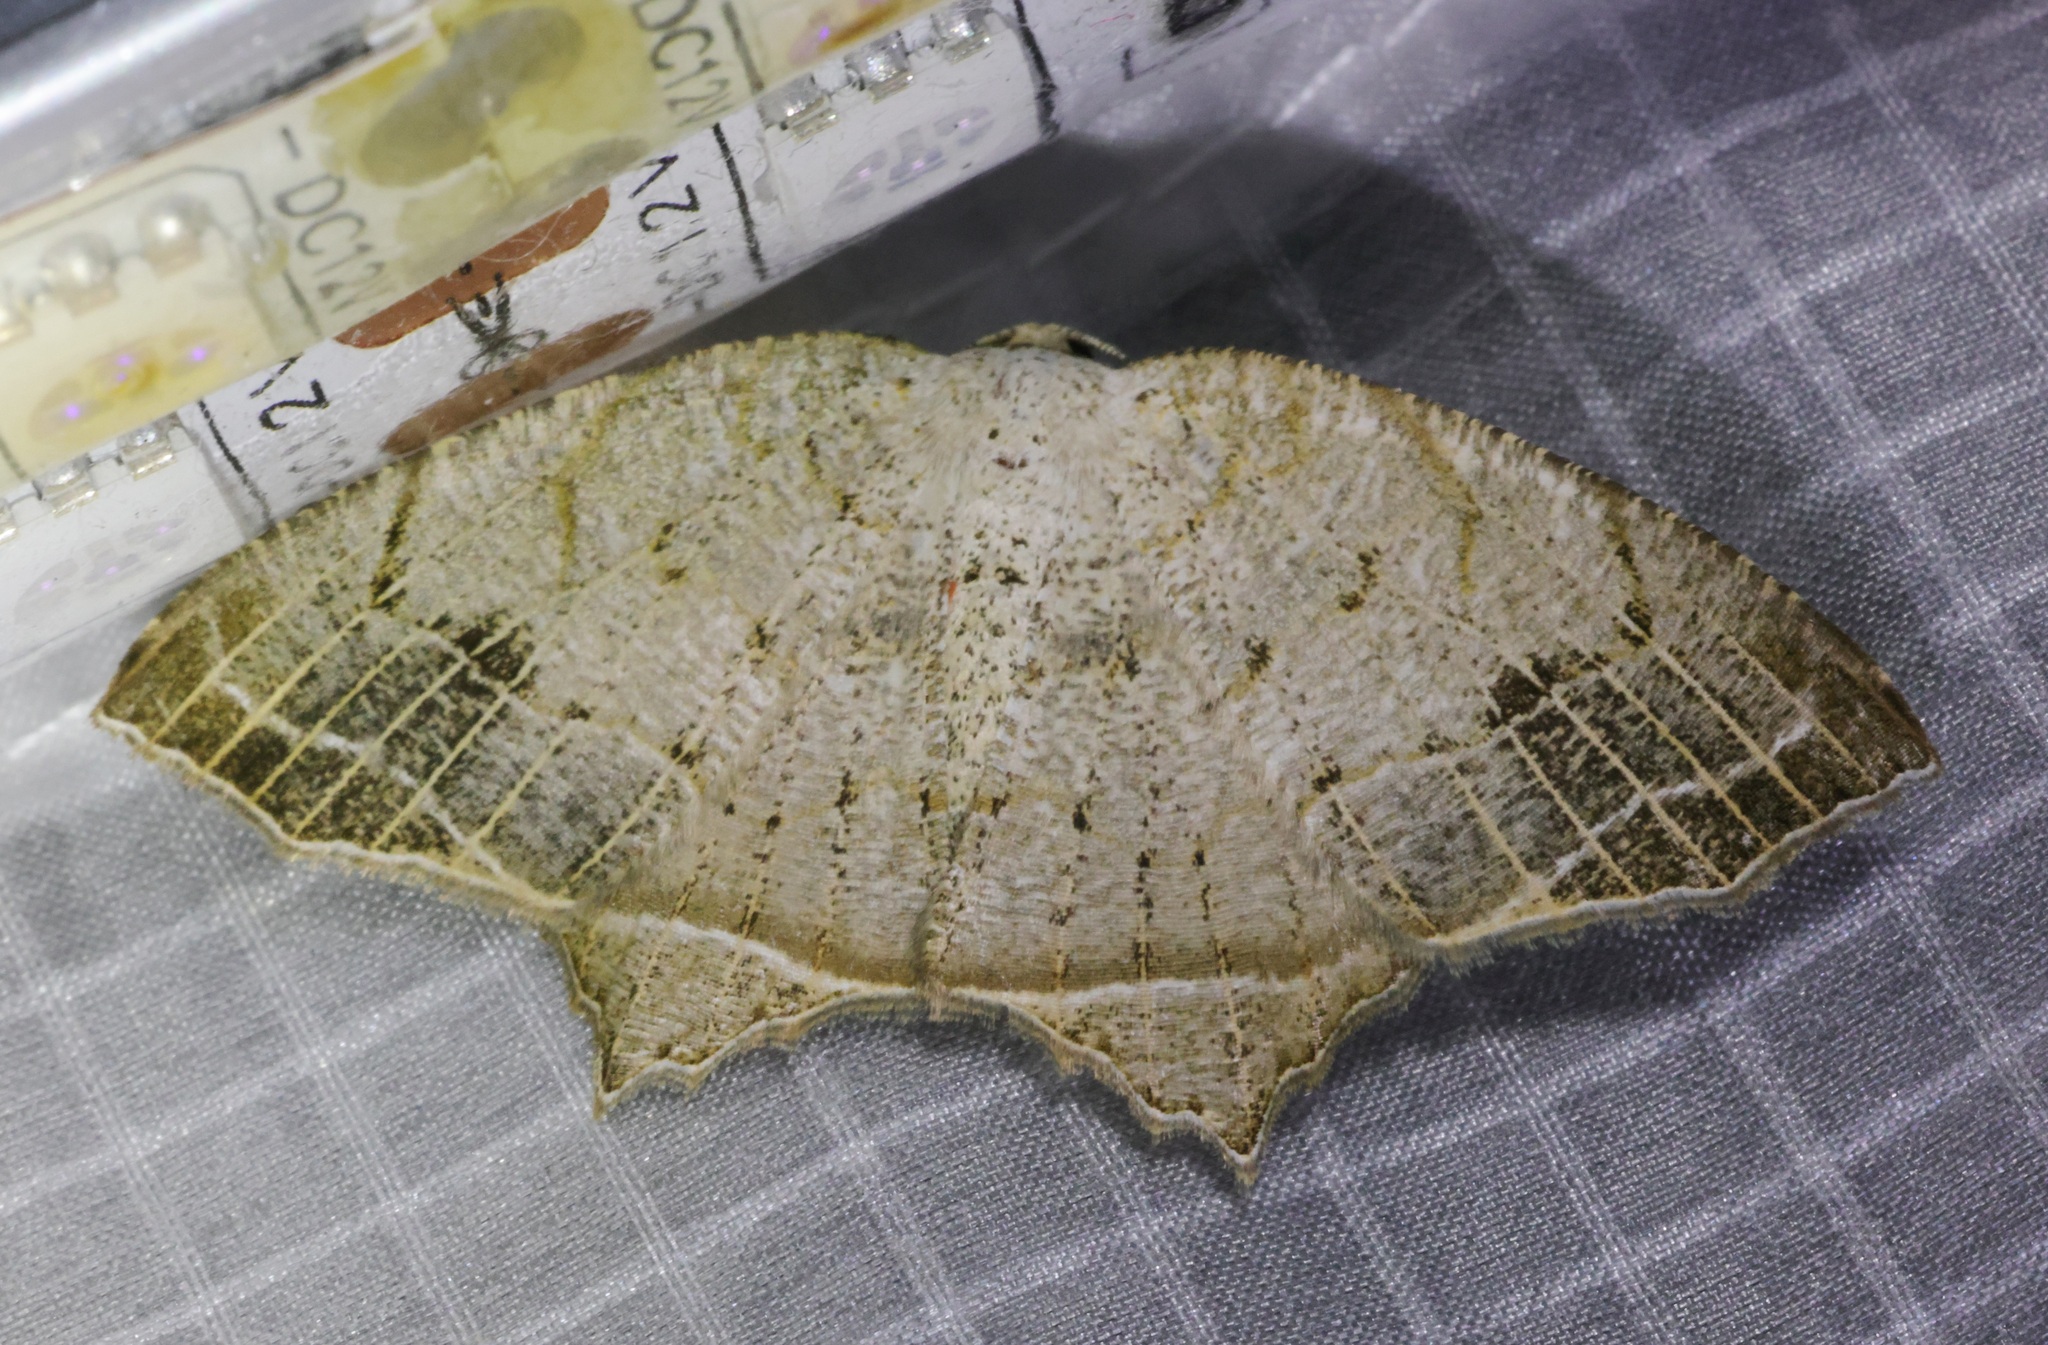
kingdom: Animalia
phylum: Arthropoda
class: Insecta
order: Lepidoptera
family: Geometridae
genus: Oxymacaria
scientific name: Oxymacaria temeraria
